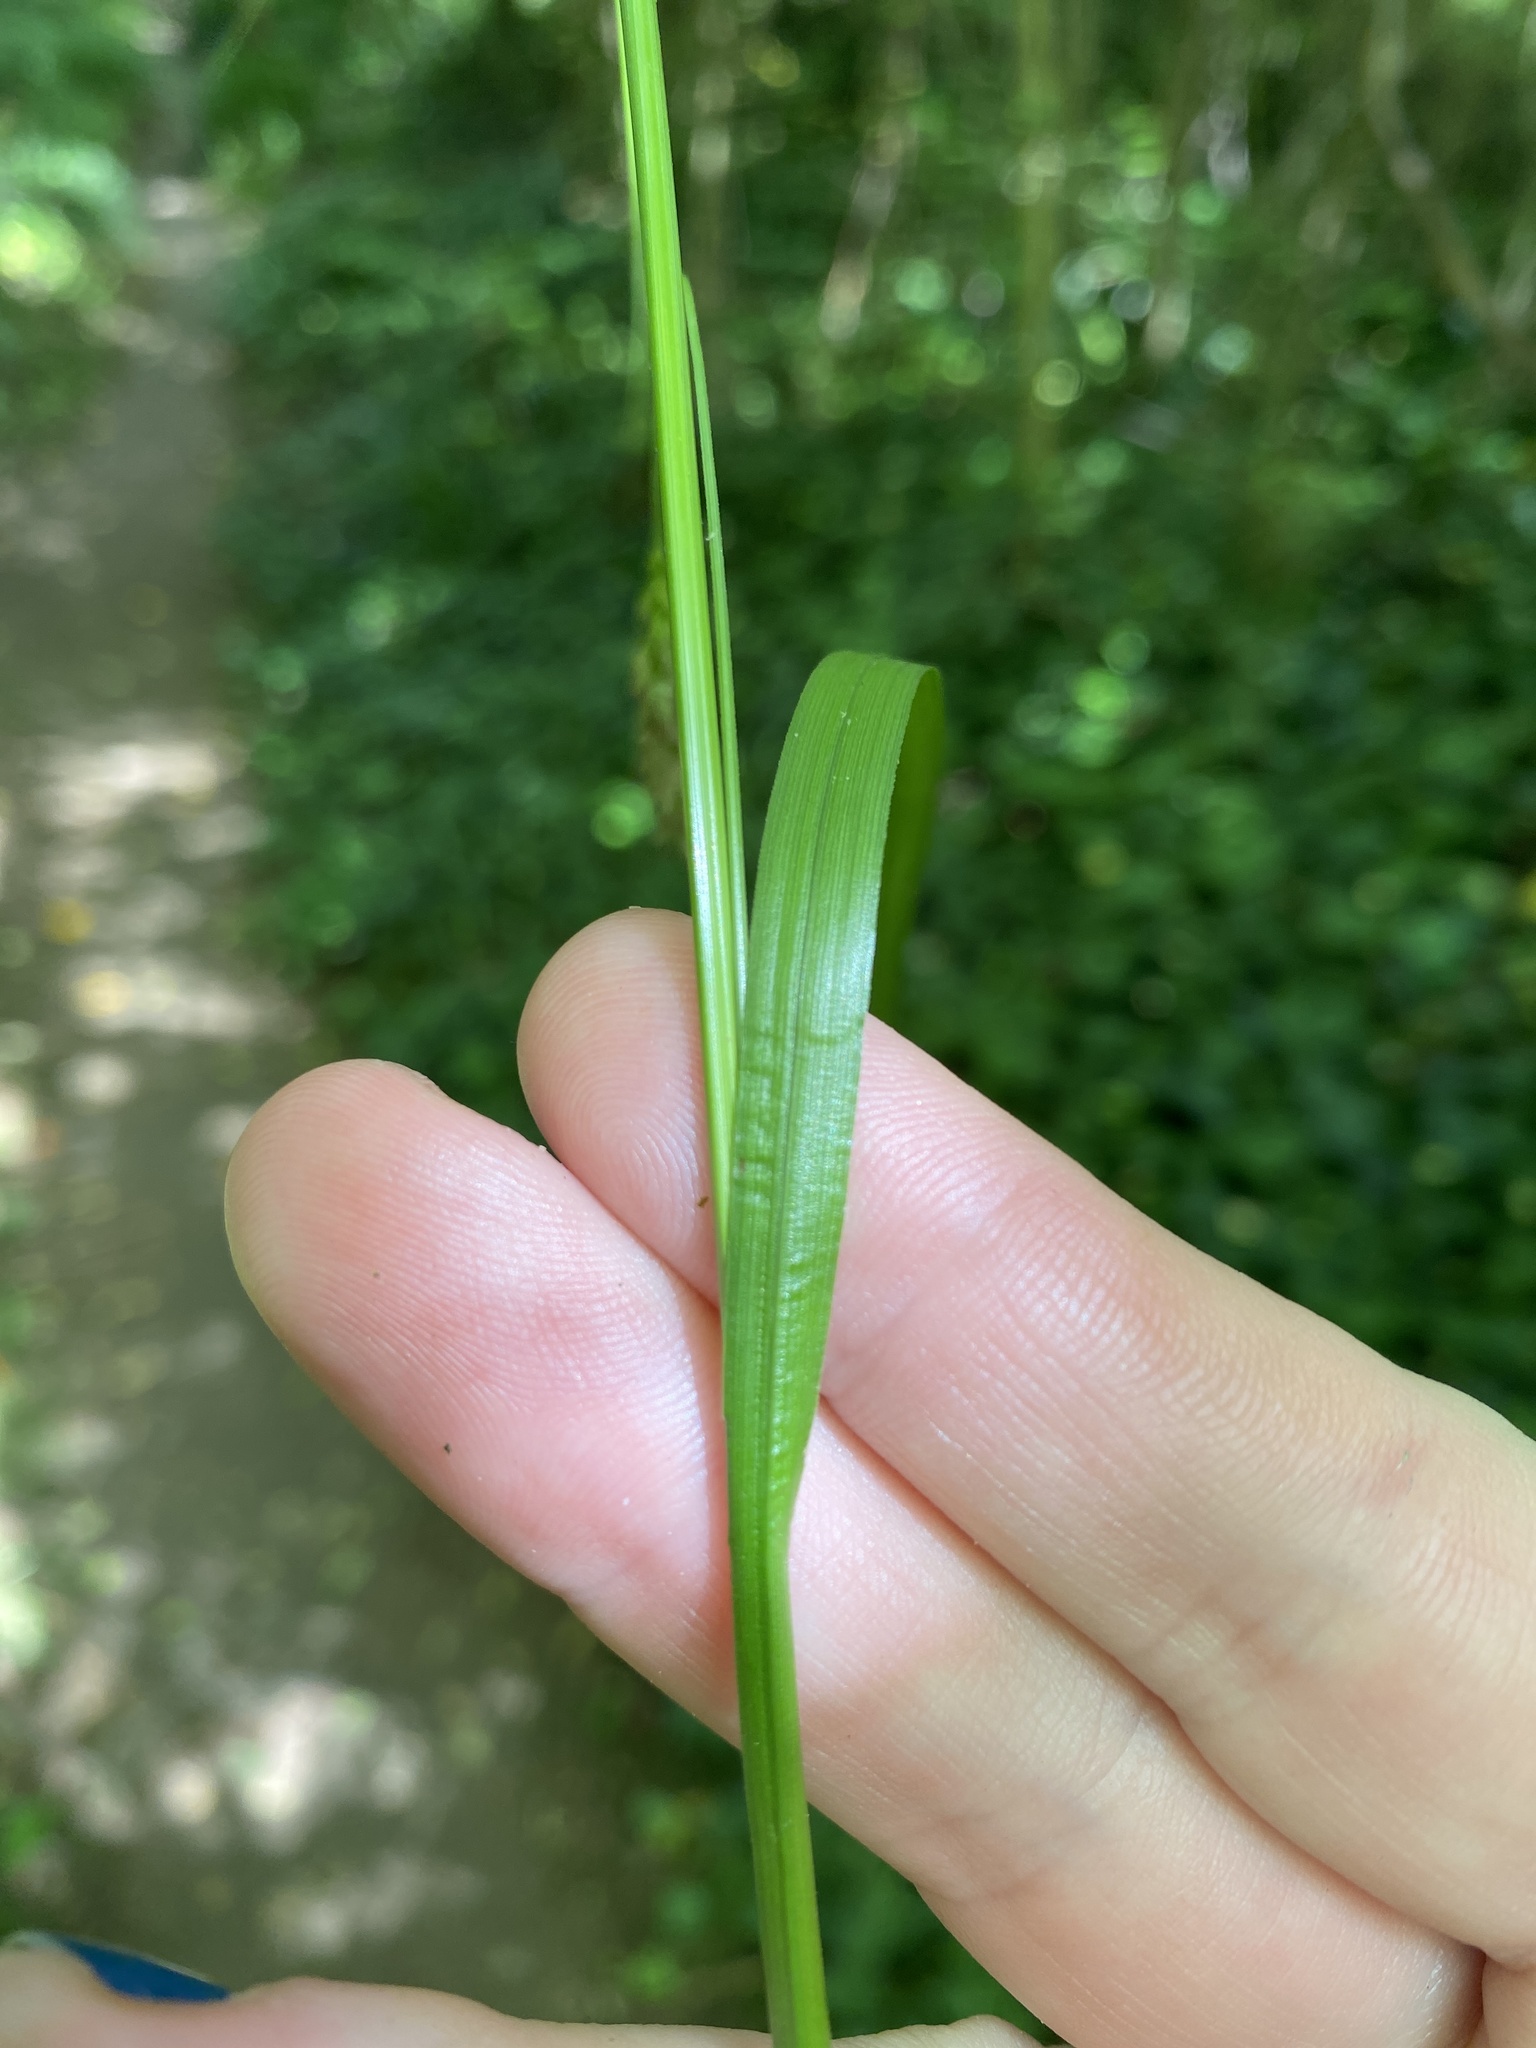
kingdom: Plantae
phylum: Tracheophyta
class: Liliopsida
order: Poales
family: Cyperaceae
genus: Carex
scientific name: Carex cherokeensis
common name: Cherokee sedge
